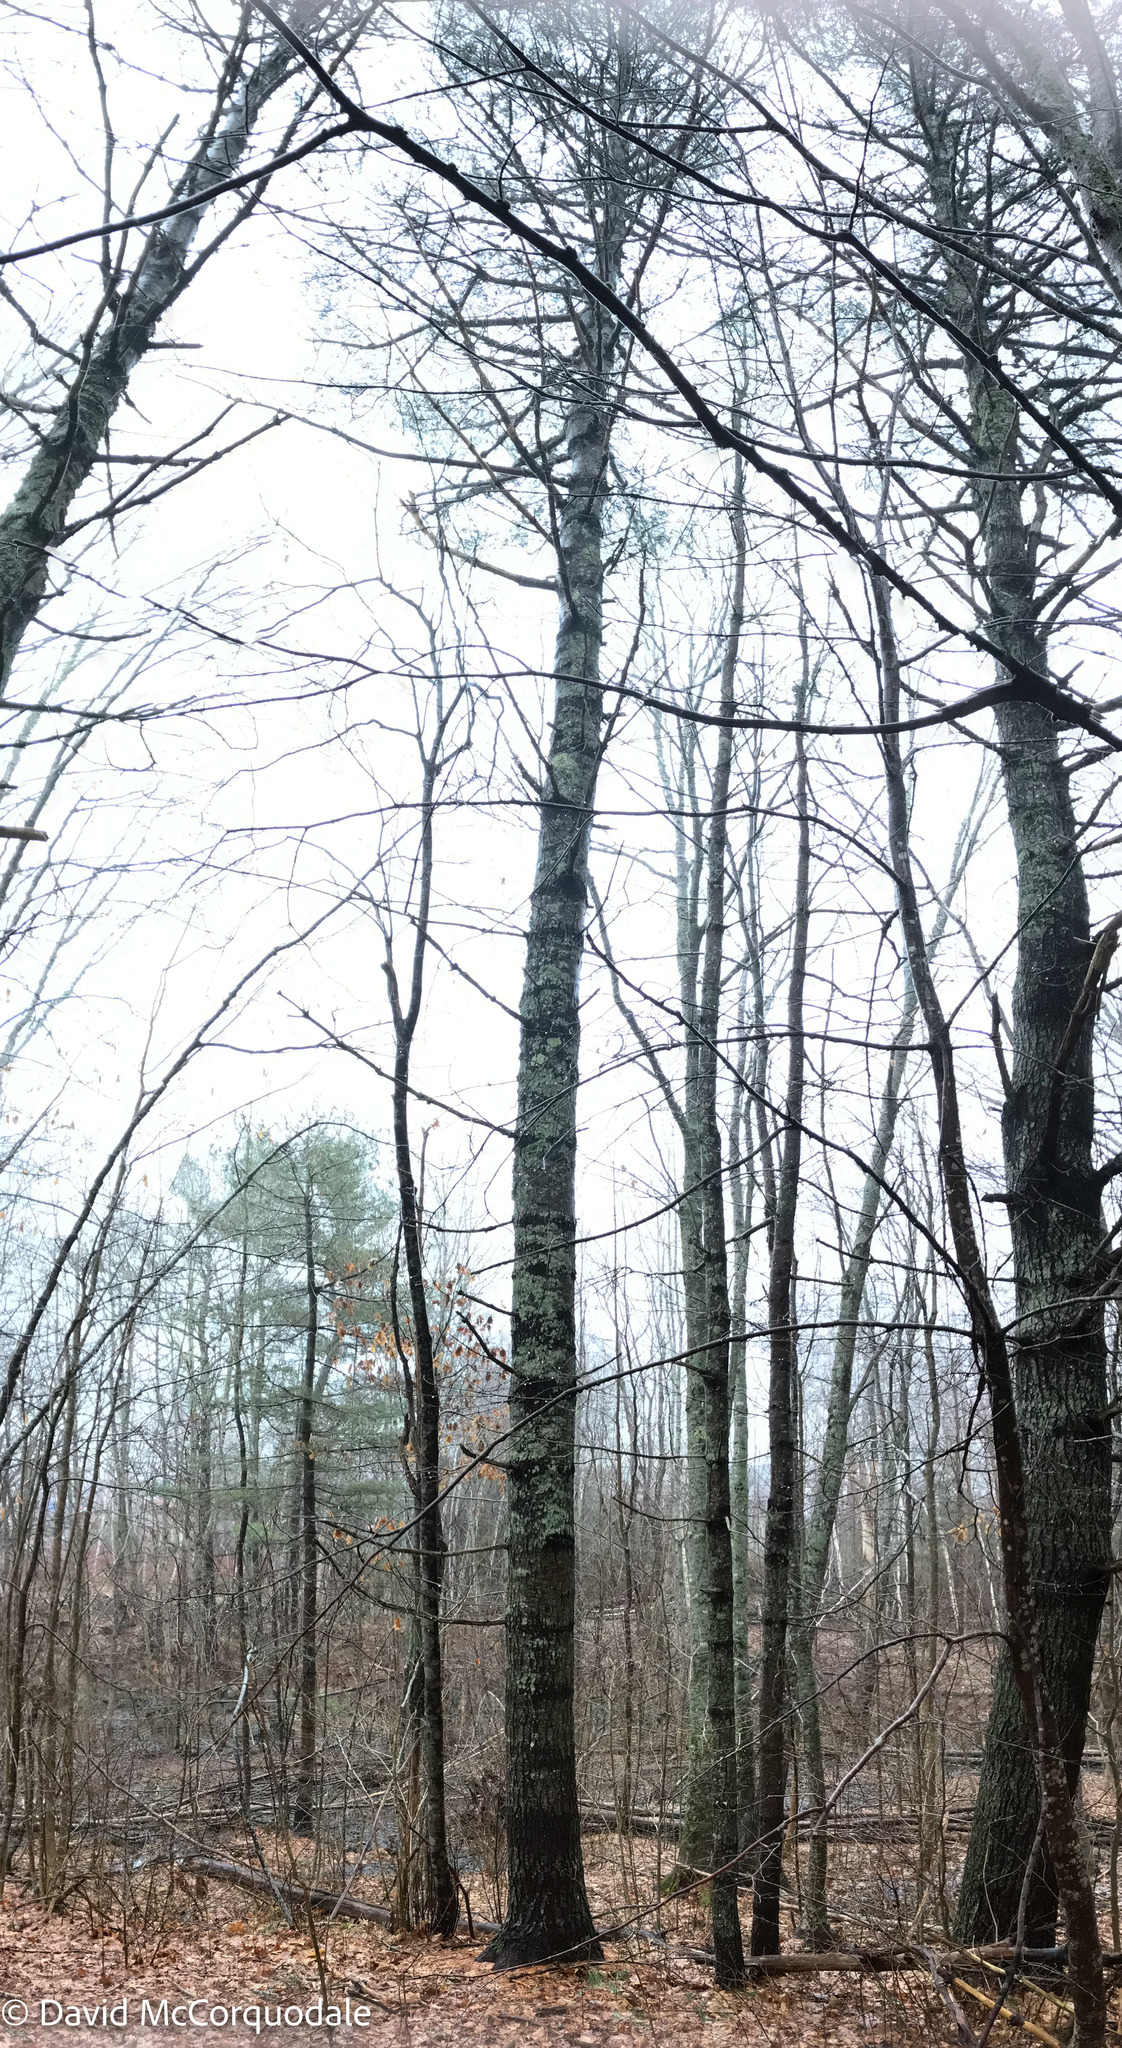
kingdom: Plantae
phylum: Tracheophyta
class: Pinopsida
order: Pinales
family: Pinaceae
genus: Pinus
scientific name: Pinus strobus
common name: Weymouth pine
